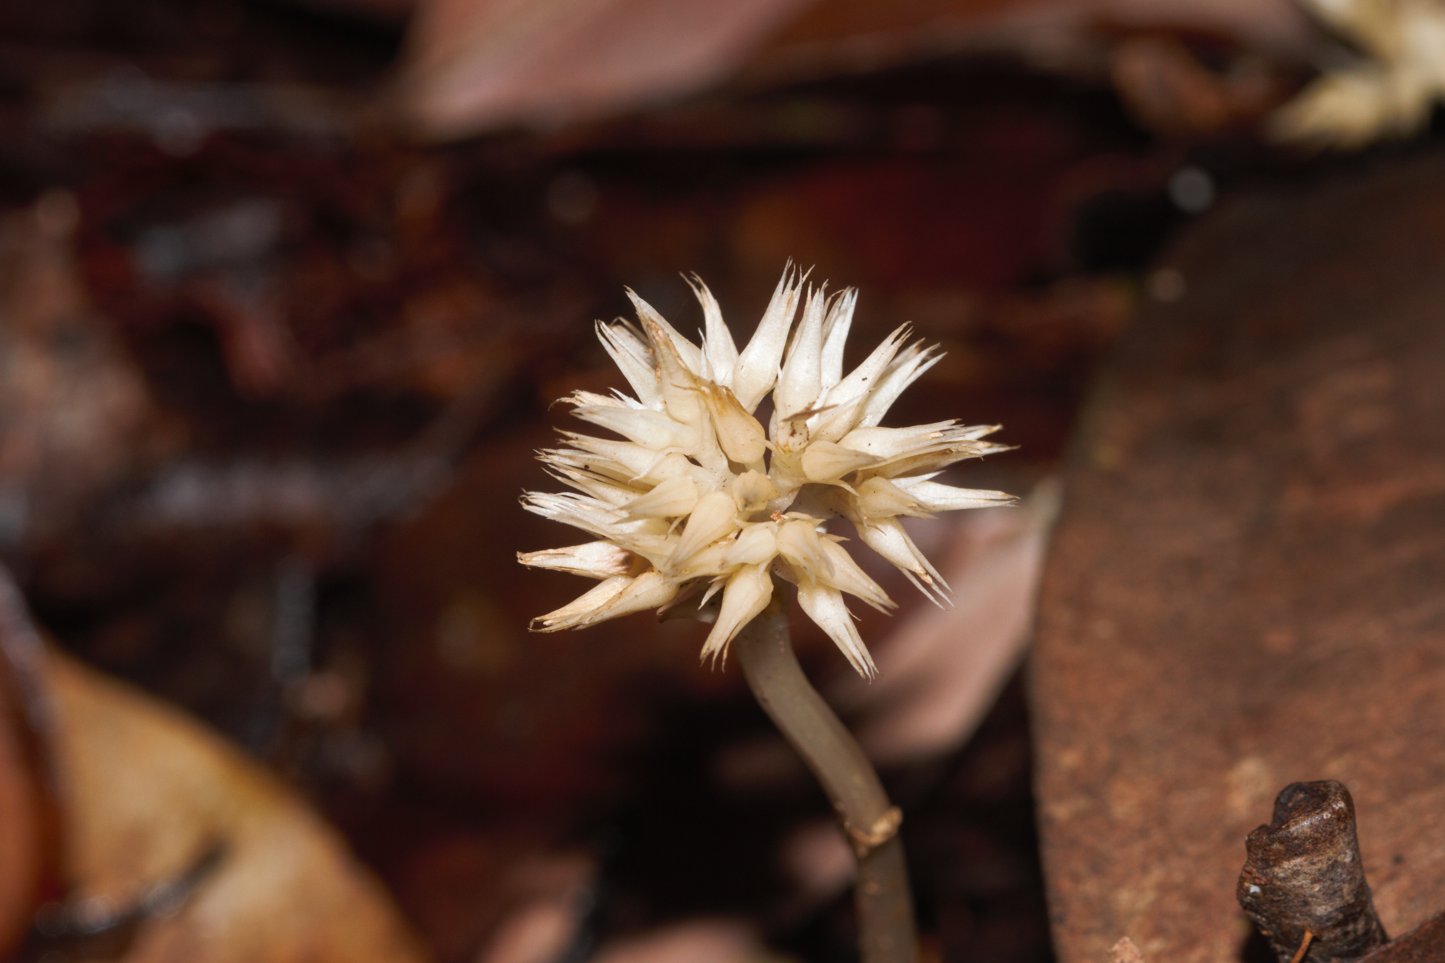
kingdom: Plantae
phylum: Tracheophyta
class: Magnoliopsida
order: Gentianales
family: Gentianaceae
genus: Voyriella
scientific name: Voyriella parviflora
